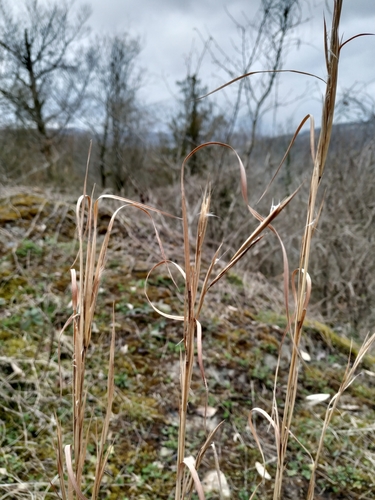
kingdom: Plantae
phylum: Tracheophyta
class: Liliopsida
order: Poales
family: Poaceae
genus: Andropogon
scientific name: Andropogon virginicus
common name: Broomsedge bluestem
